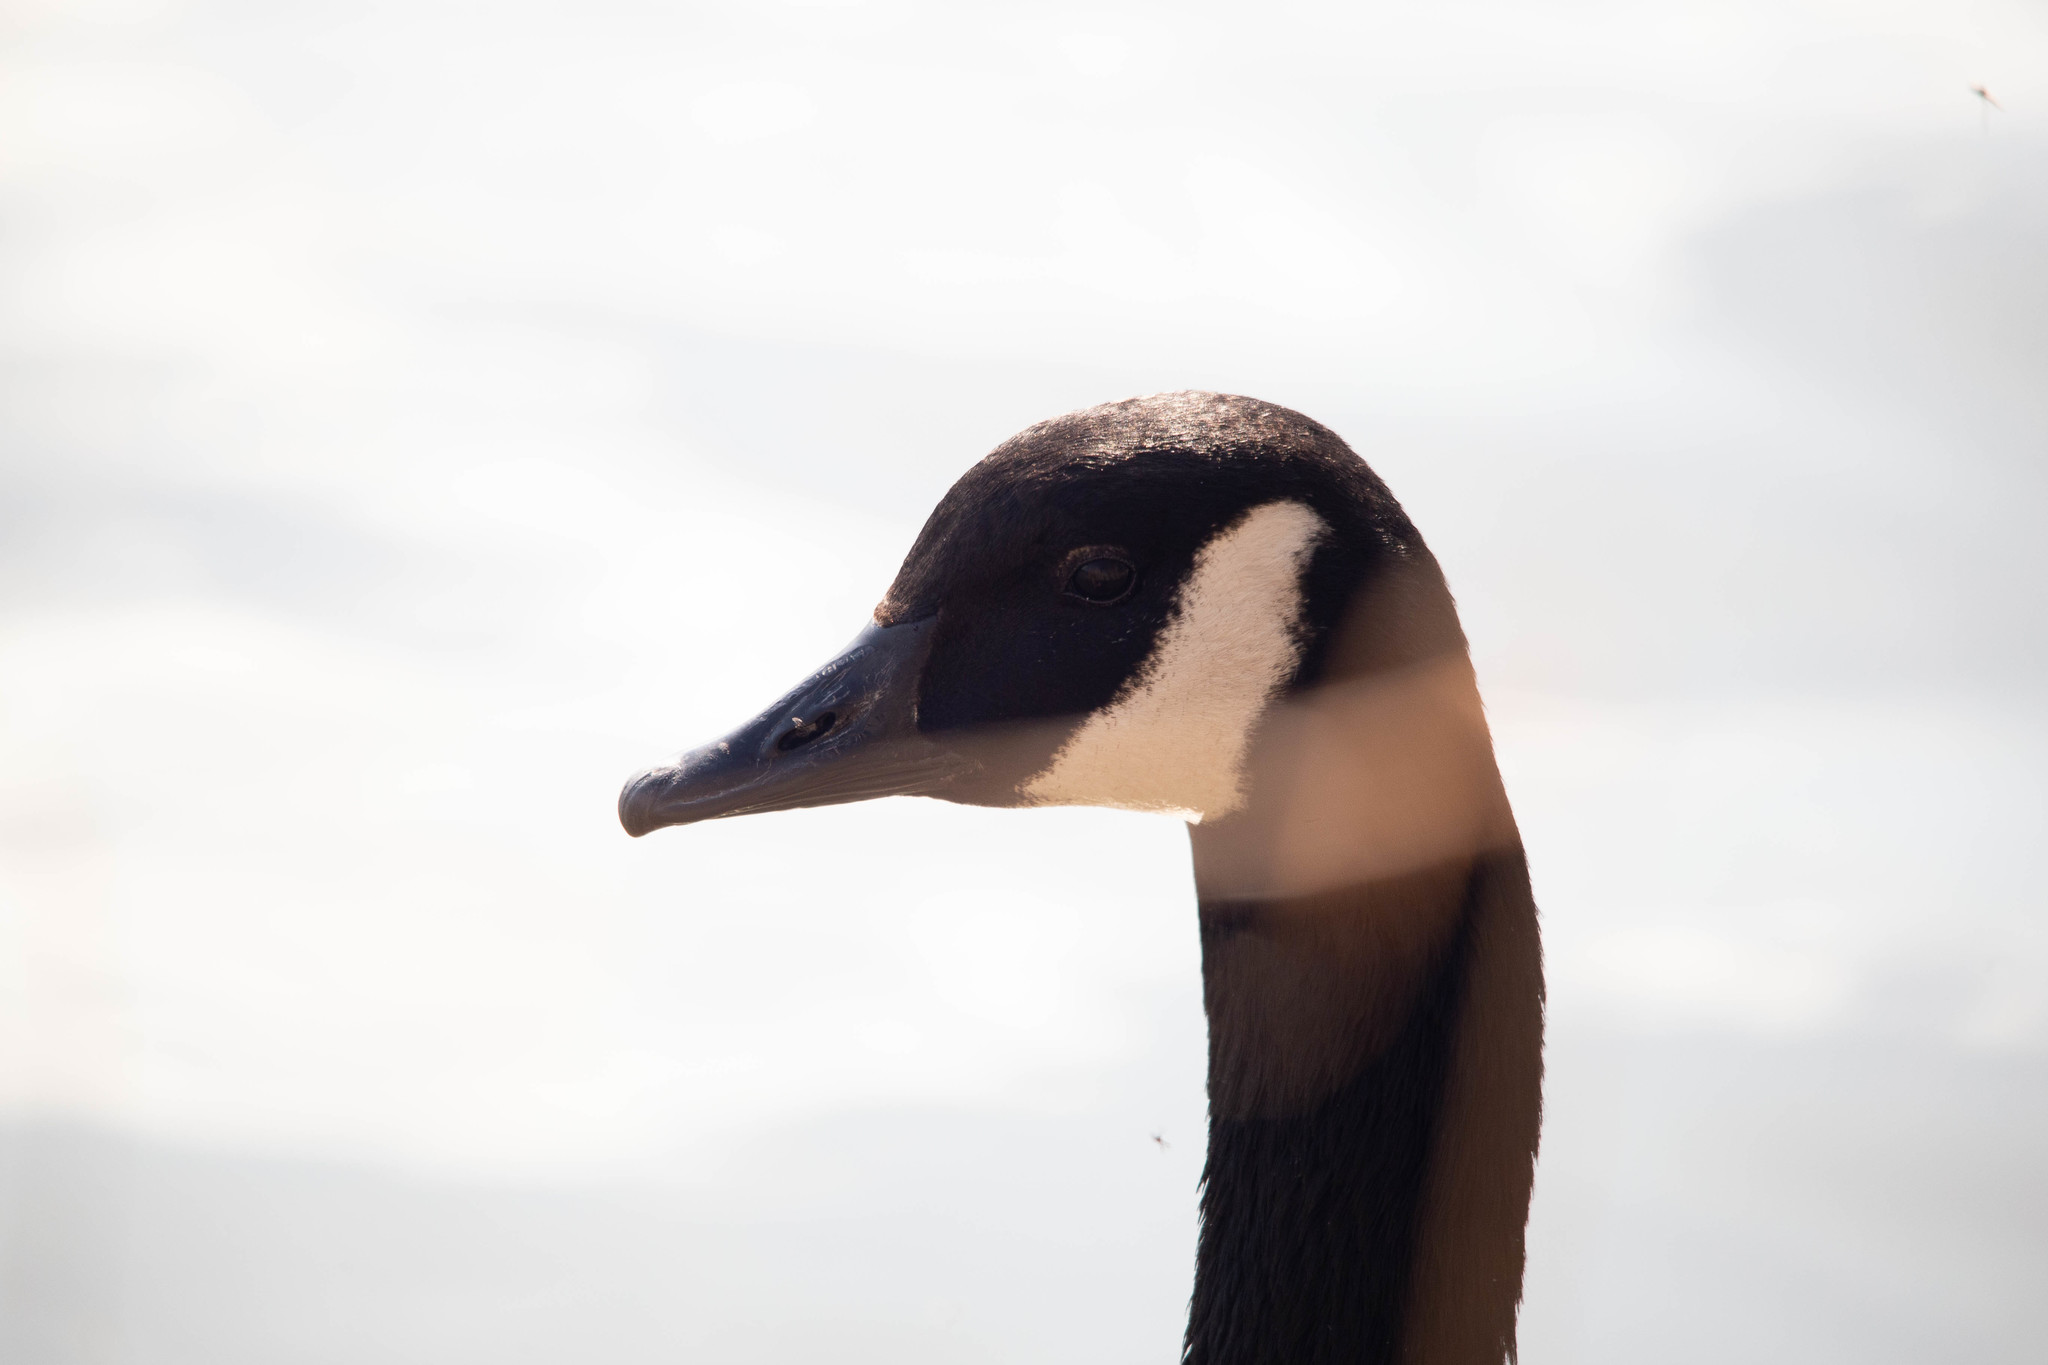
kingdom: Animalia
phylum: Chordata
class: Aves
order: Anseriformes
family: Anatidae
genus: Branta
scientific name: Branta canadensis
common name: Canada goose
